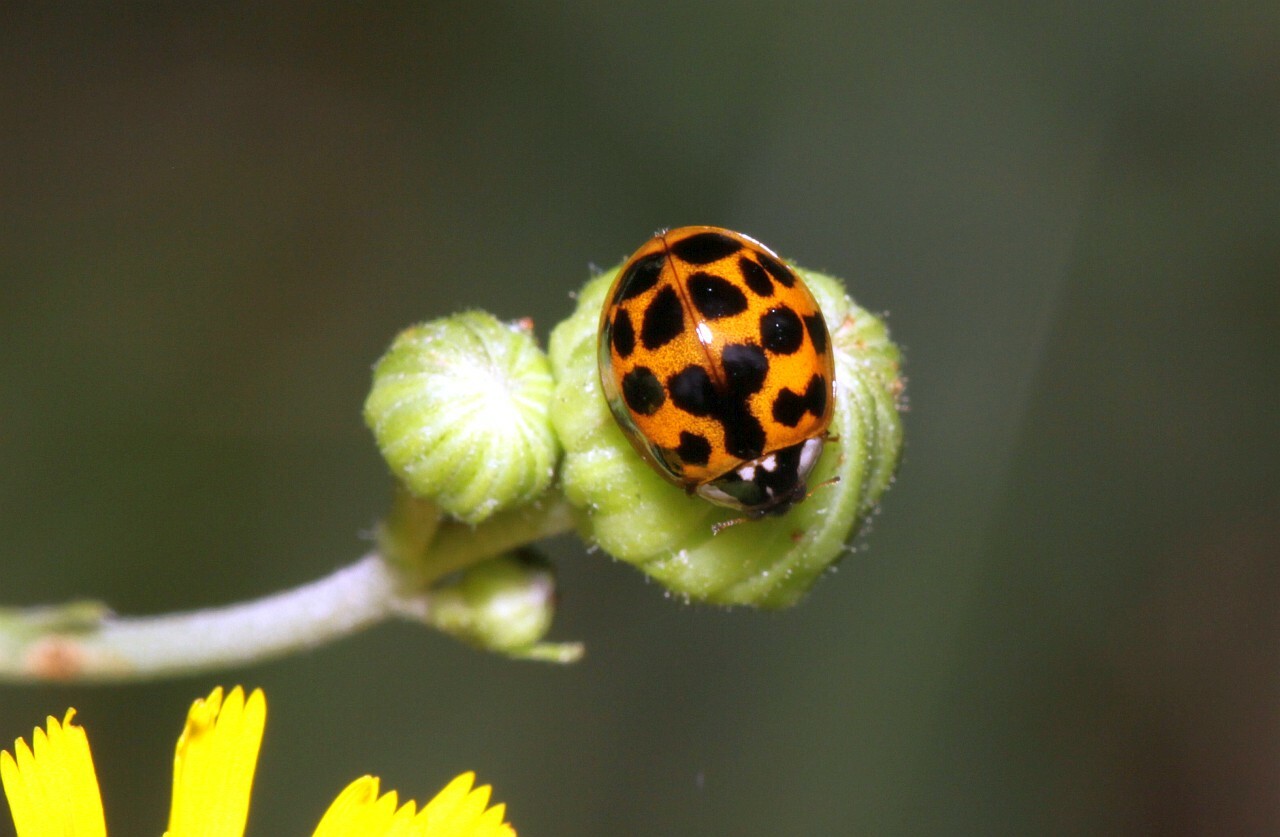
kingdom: Animalia
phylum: Arthropoda
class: Insecta
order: Coleoptera
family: Coccinellidae
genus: Harmonia
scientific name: Harmonia axyridis
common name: Harlequin ladybird
